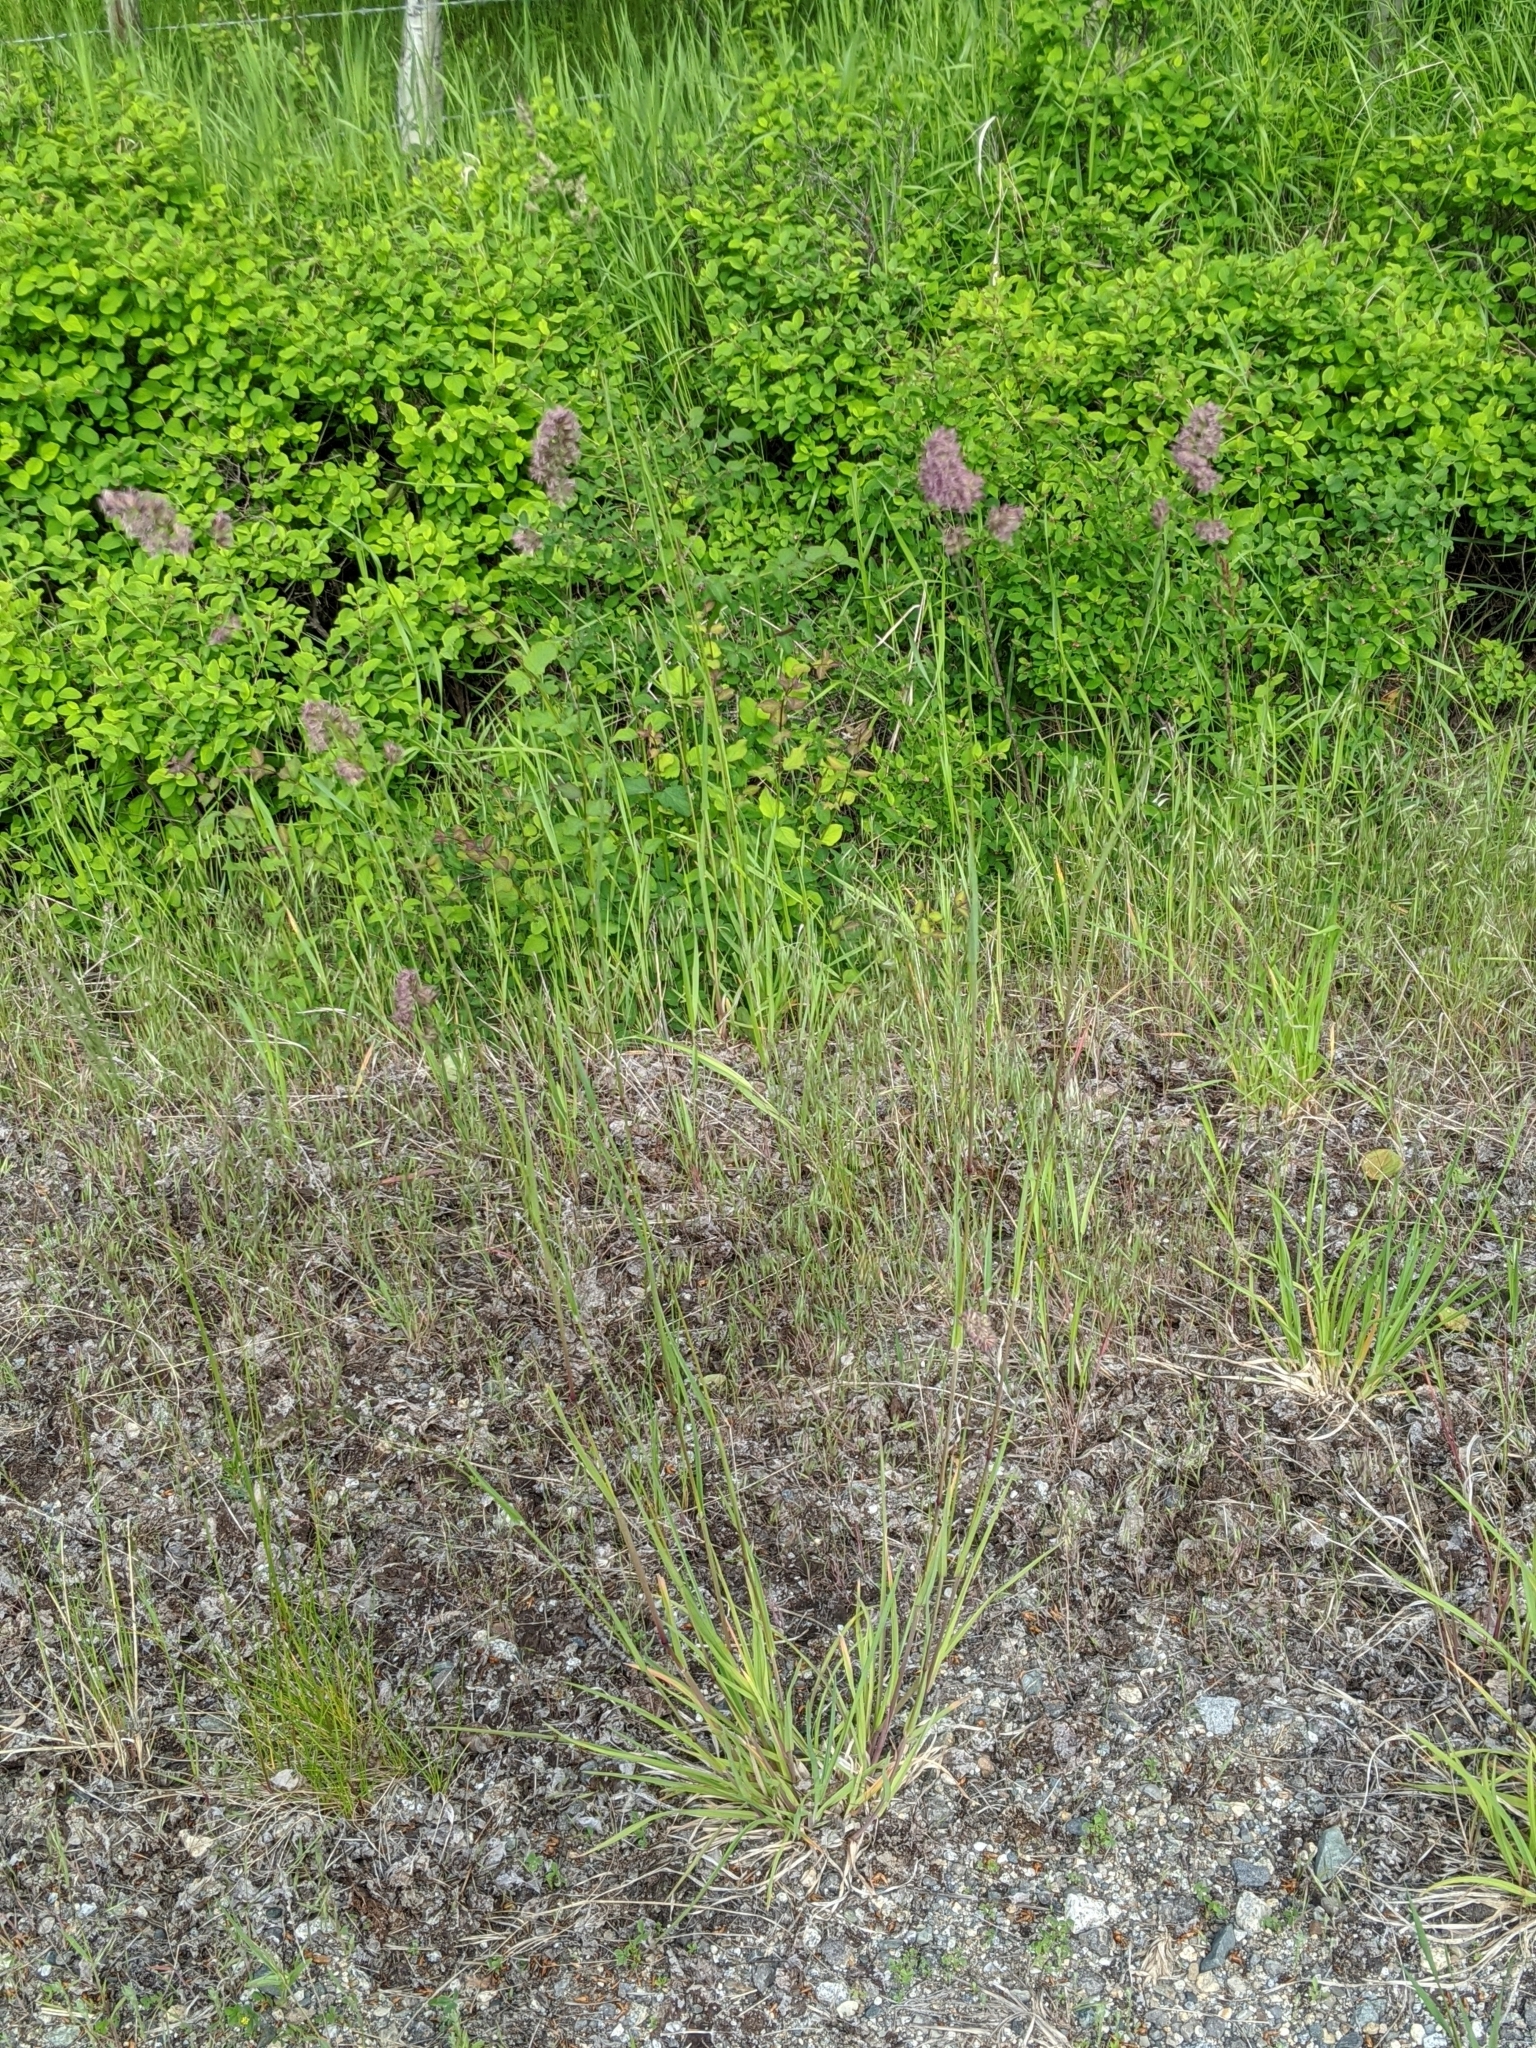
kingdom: Plantae
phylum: Tracheophyta
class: Liliopsida
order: Poales
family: Poaceae
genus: Dactylis
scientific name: Dactylis glomerata
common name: Orchardgrass
